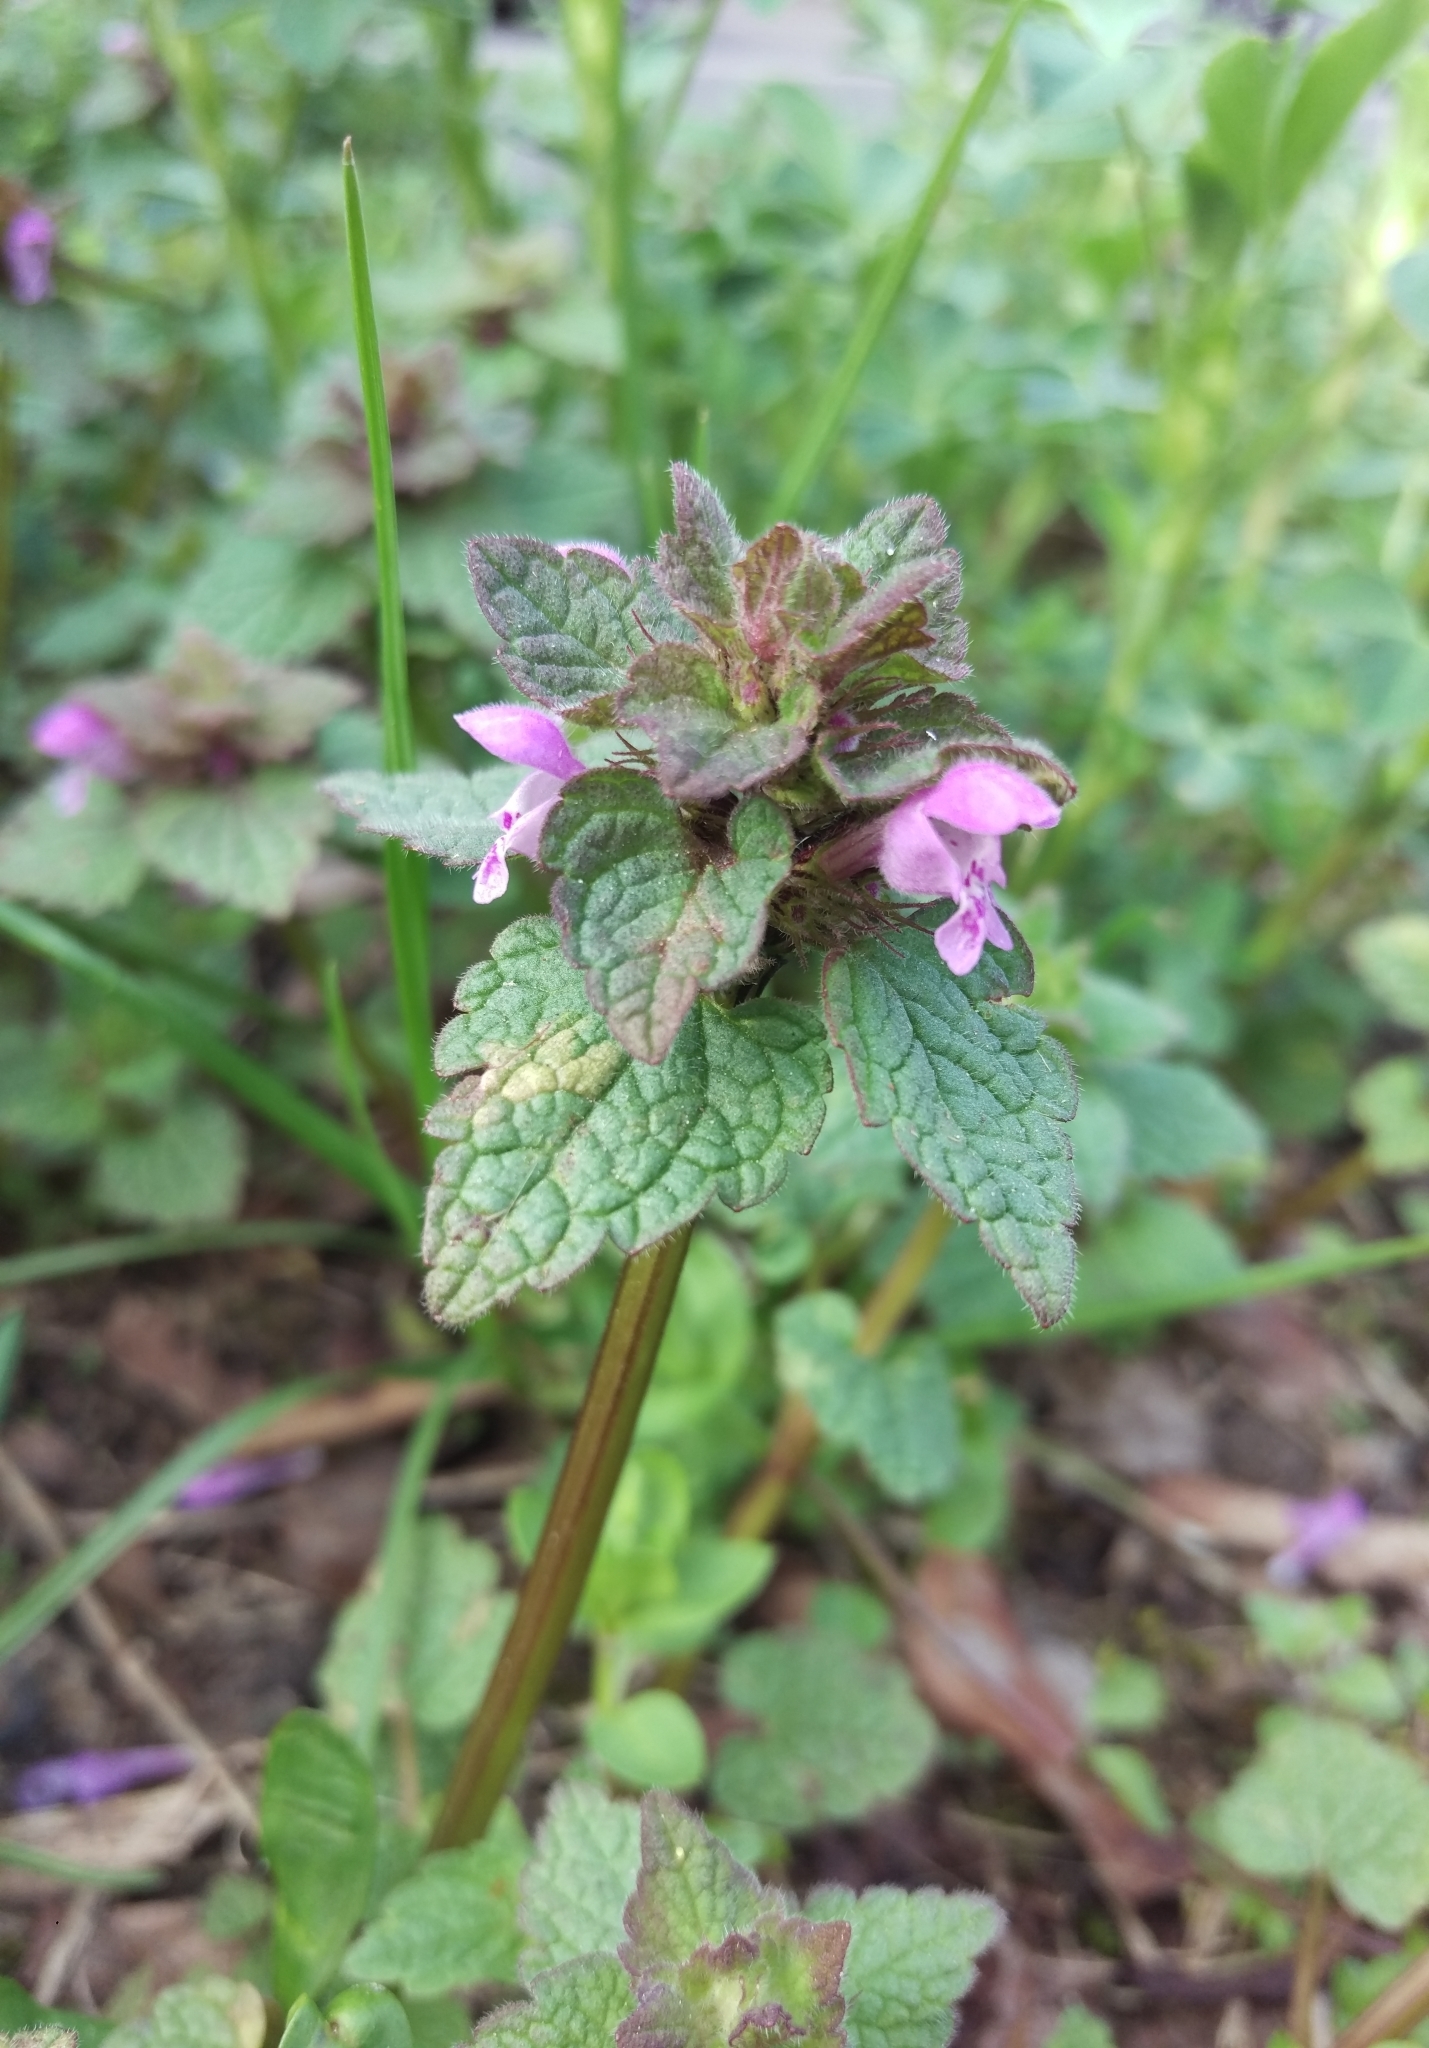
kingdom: Plantae
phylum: Tracheophyta
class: Magnoliopsida
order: Lamiales
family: Lamiaceae
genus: Lamium
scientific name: Lamium purpureum
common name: Red dead-nettle
